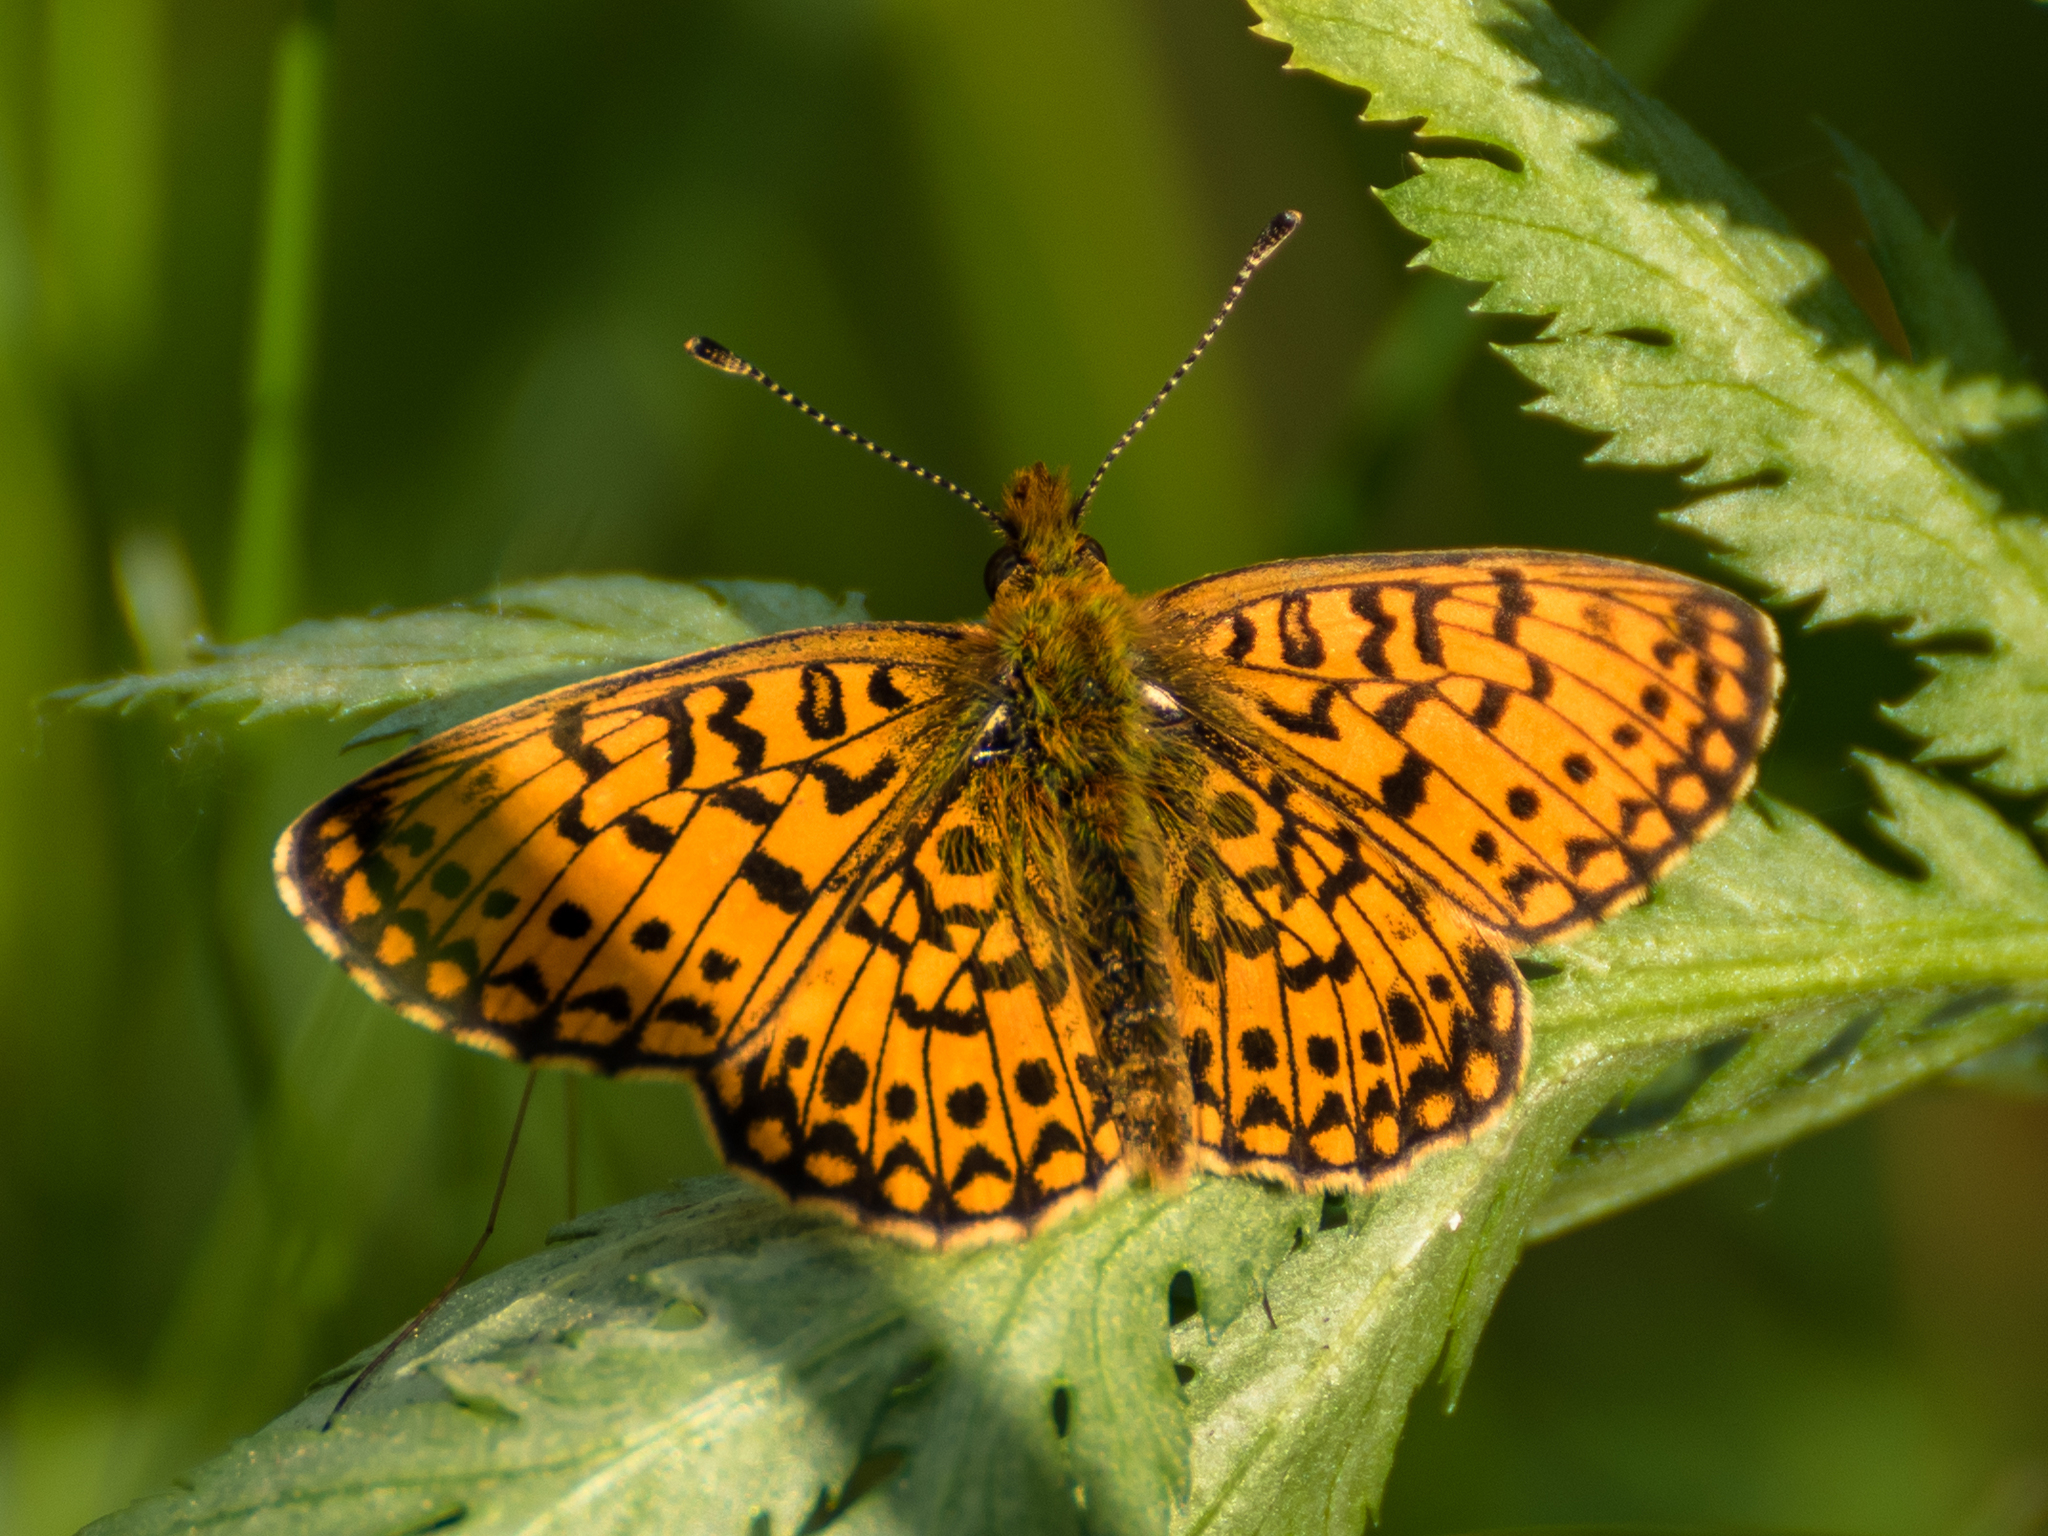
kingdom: Animalia
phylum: Arthropoda
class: Insecta
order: Lepidoptera
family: Nymphalidae
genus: Boloria
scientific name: Boloria selene
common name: Small pearl-bordered fritillary
